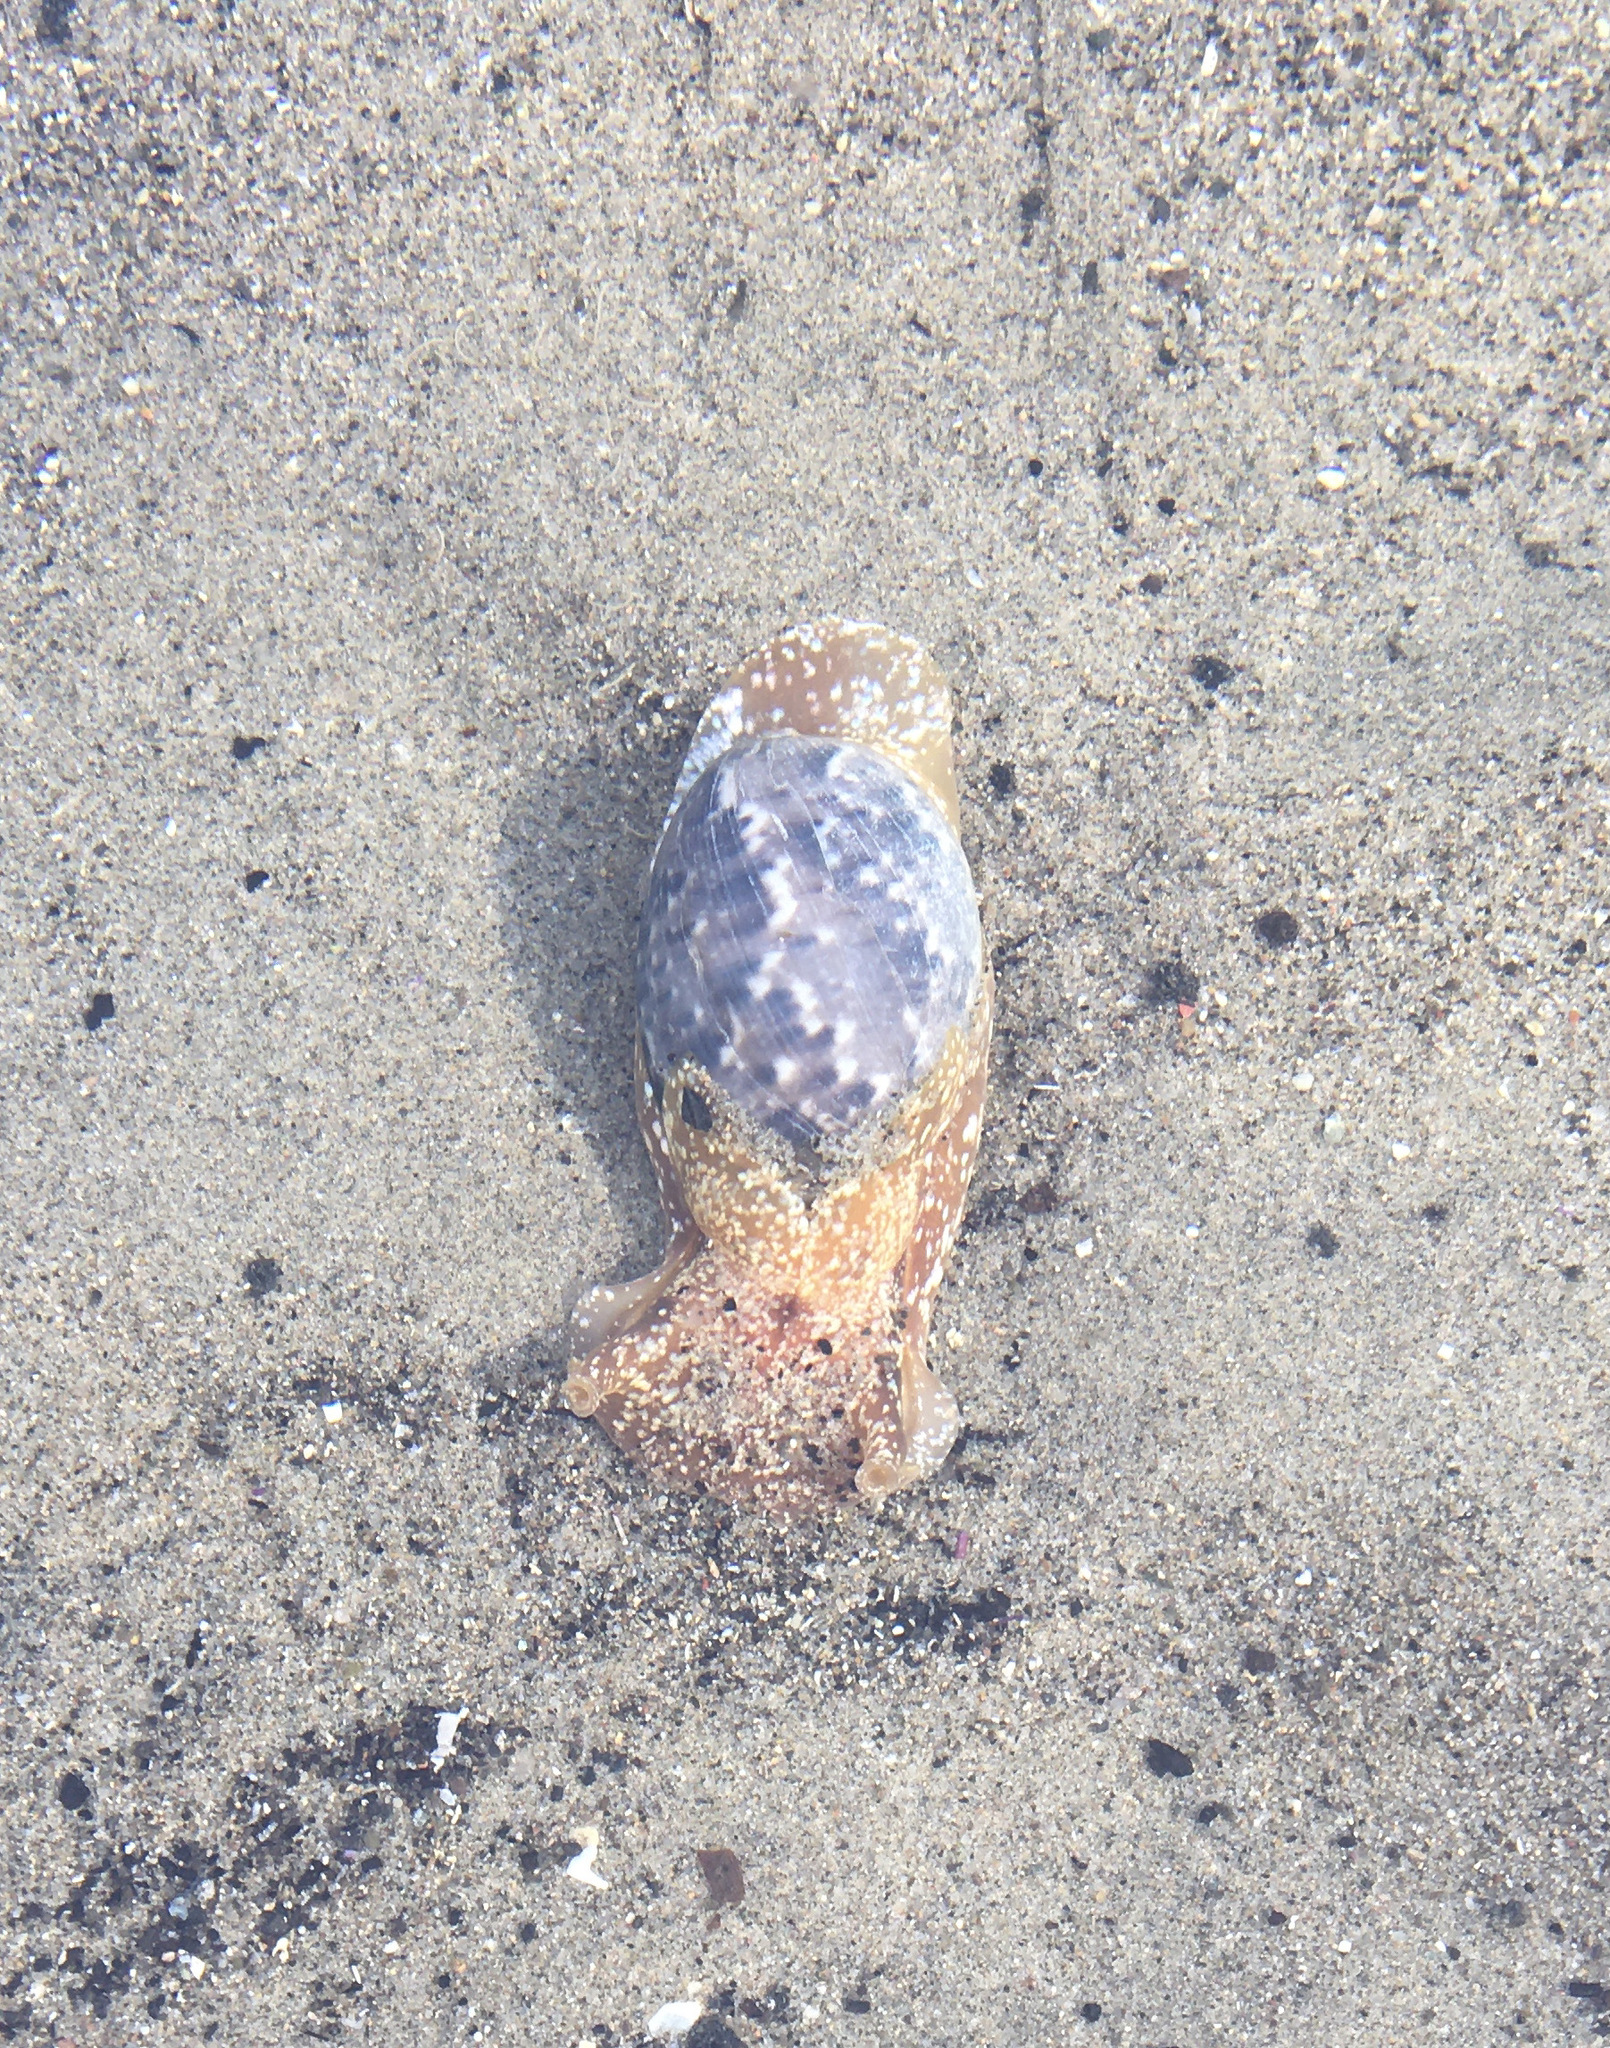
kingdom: Animalia
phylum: Mollusca
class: Gastropoda
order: Cephalaspidea
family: Bullidae
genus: Bulla
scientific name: Bulla gouldiana
